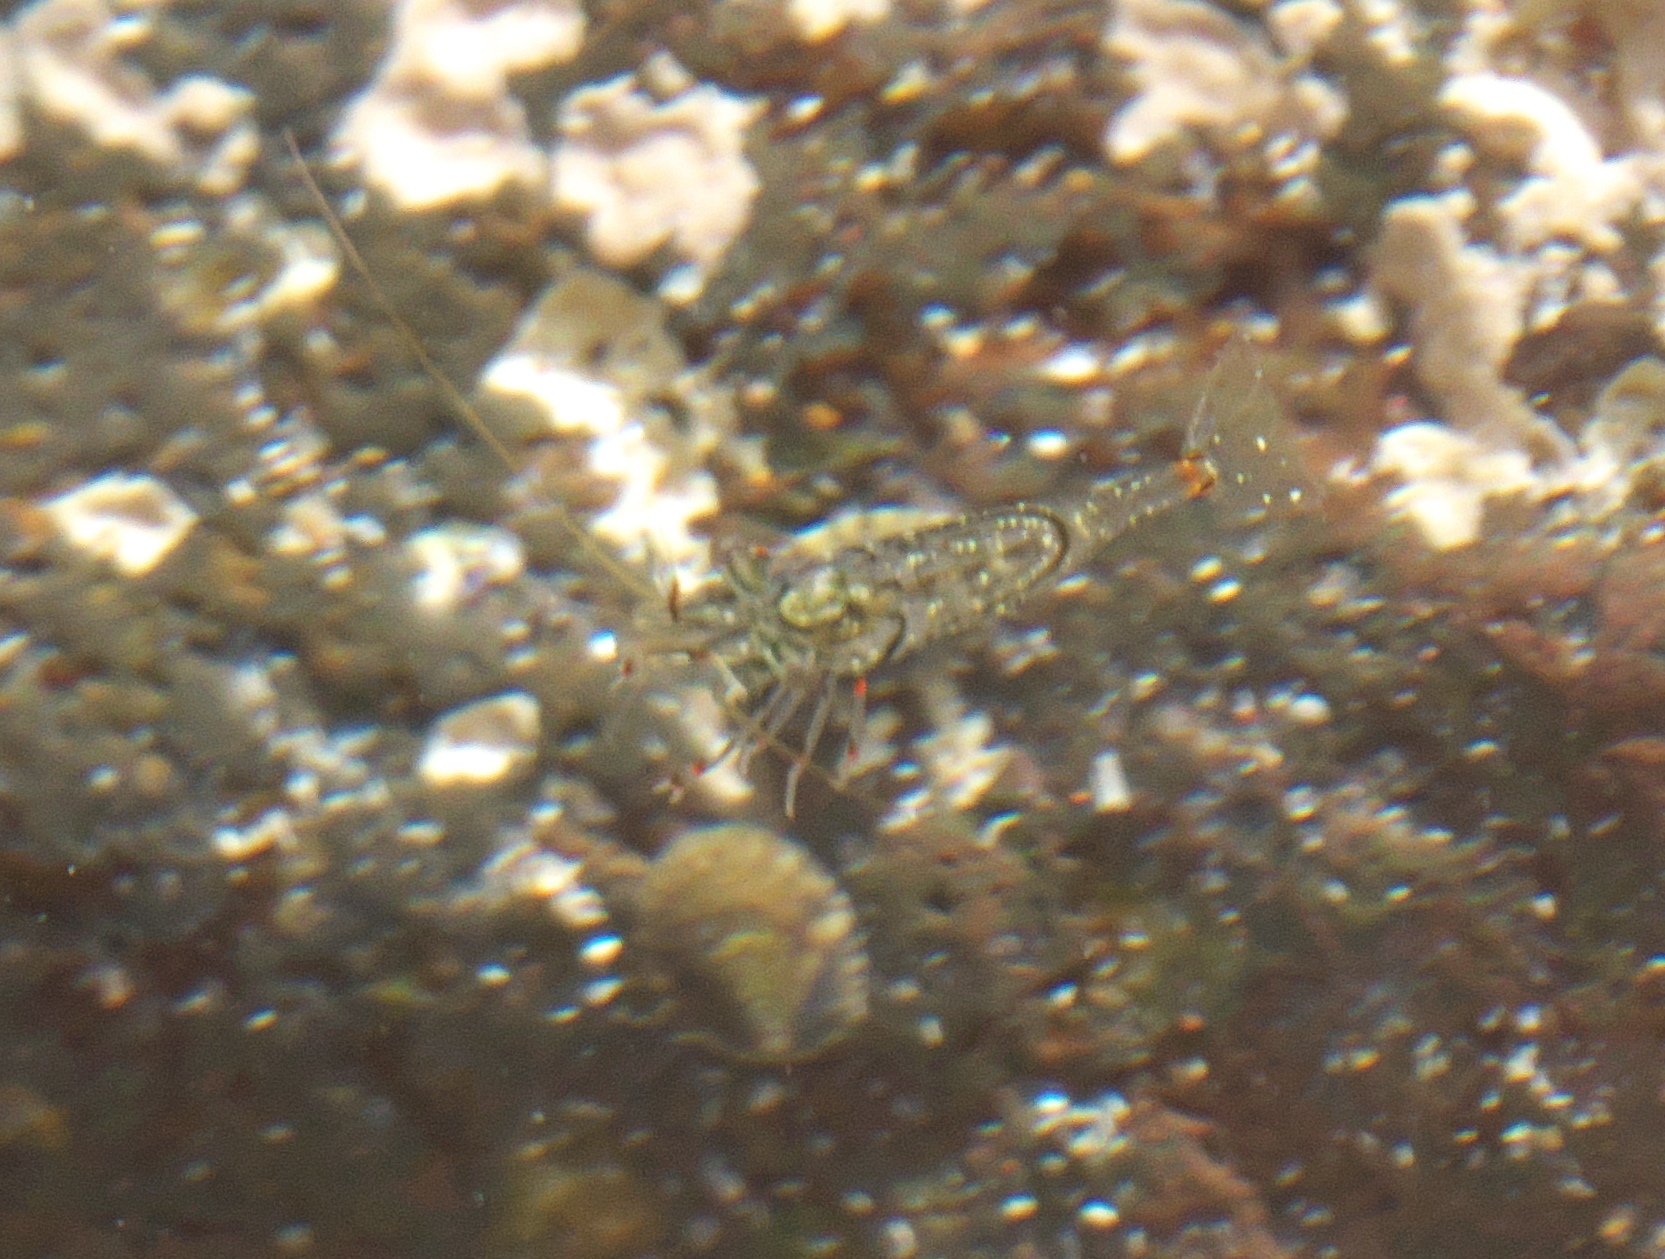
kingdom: Animalia
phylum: Arthropoda
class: Malacostraca
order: Decapoda
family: Palaemonidae
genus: Palaemon
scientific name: Palaemon affinis
